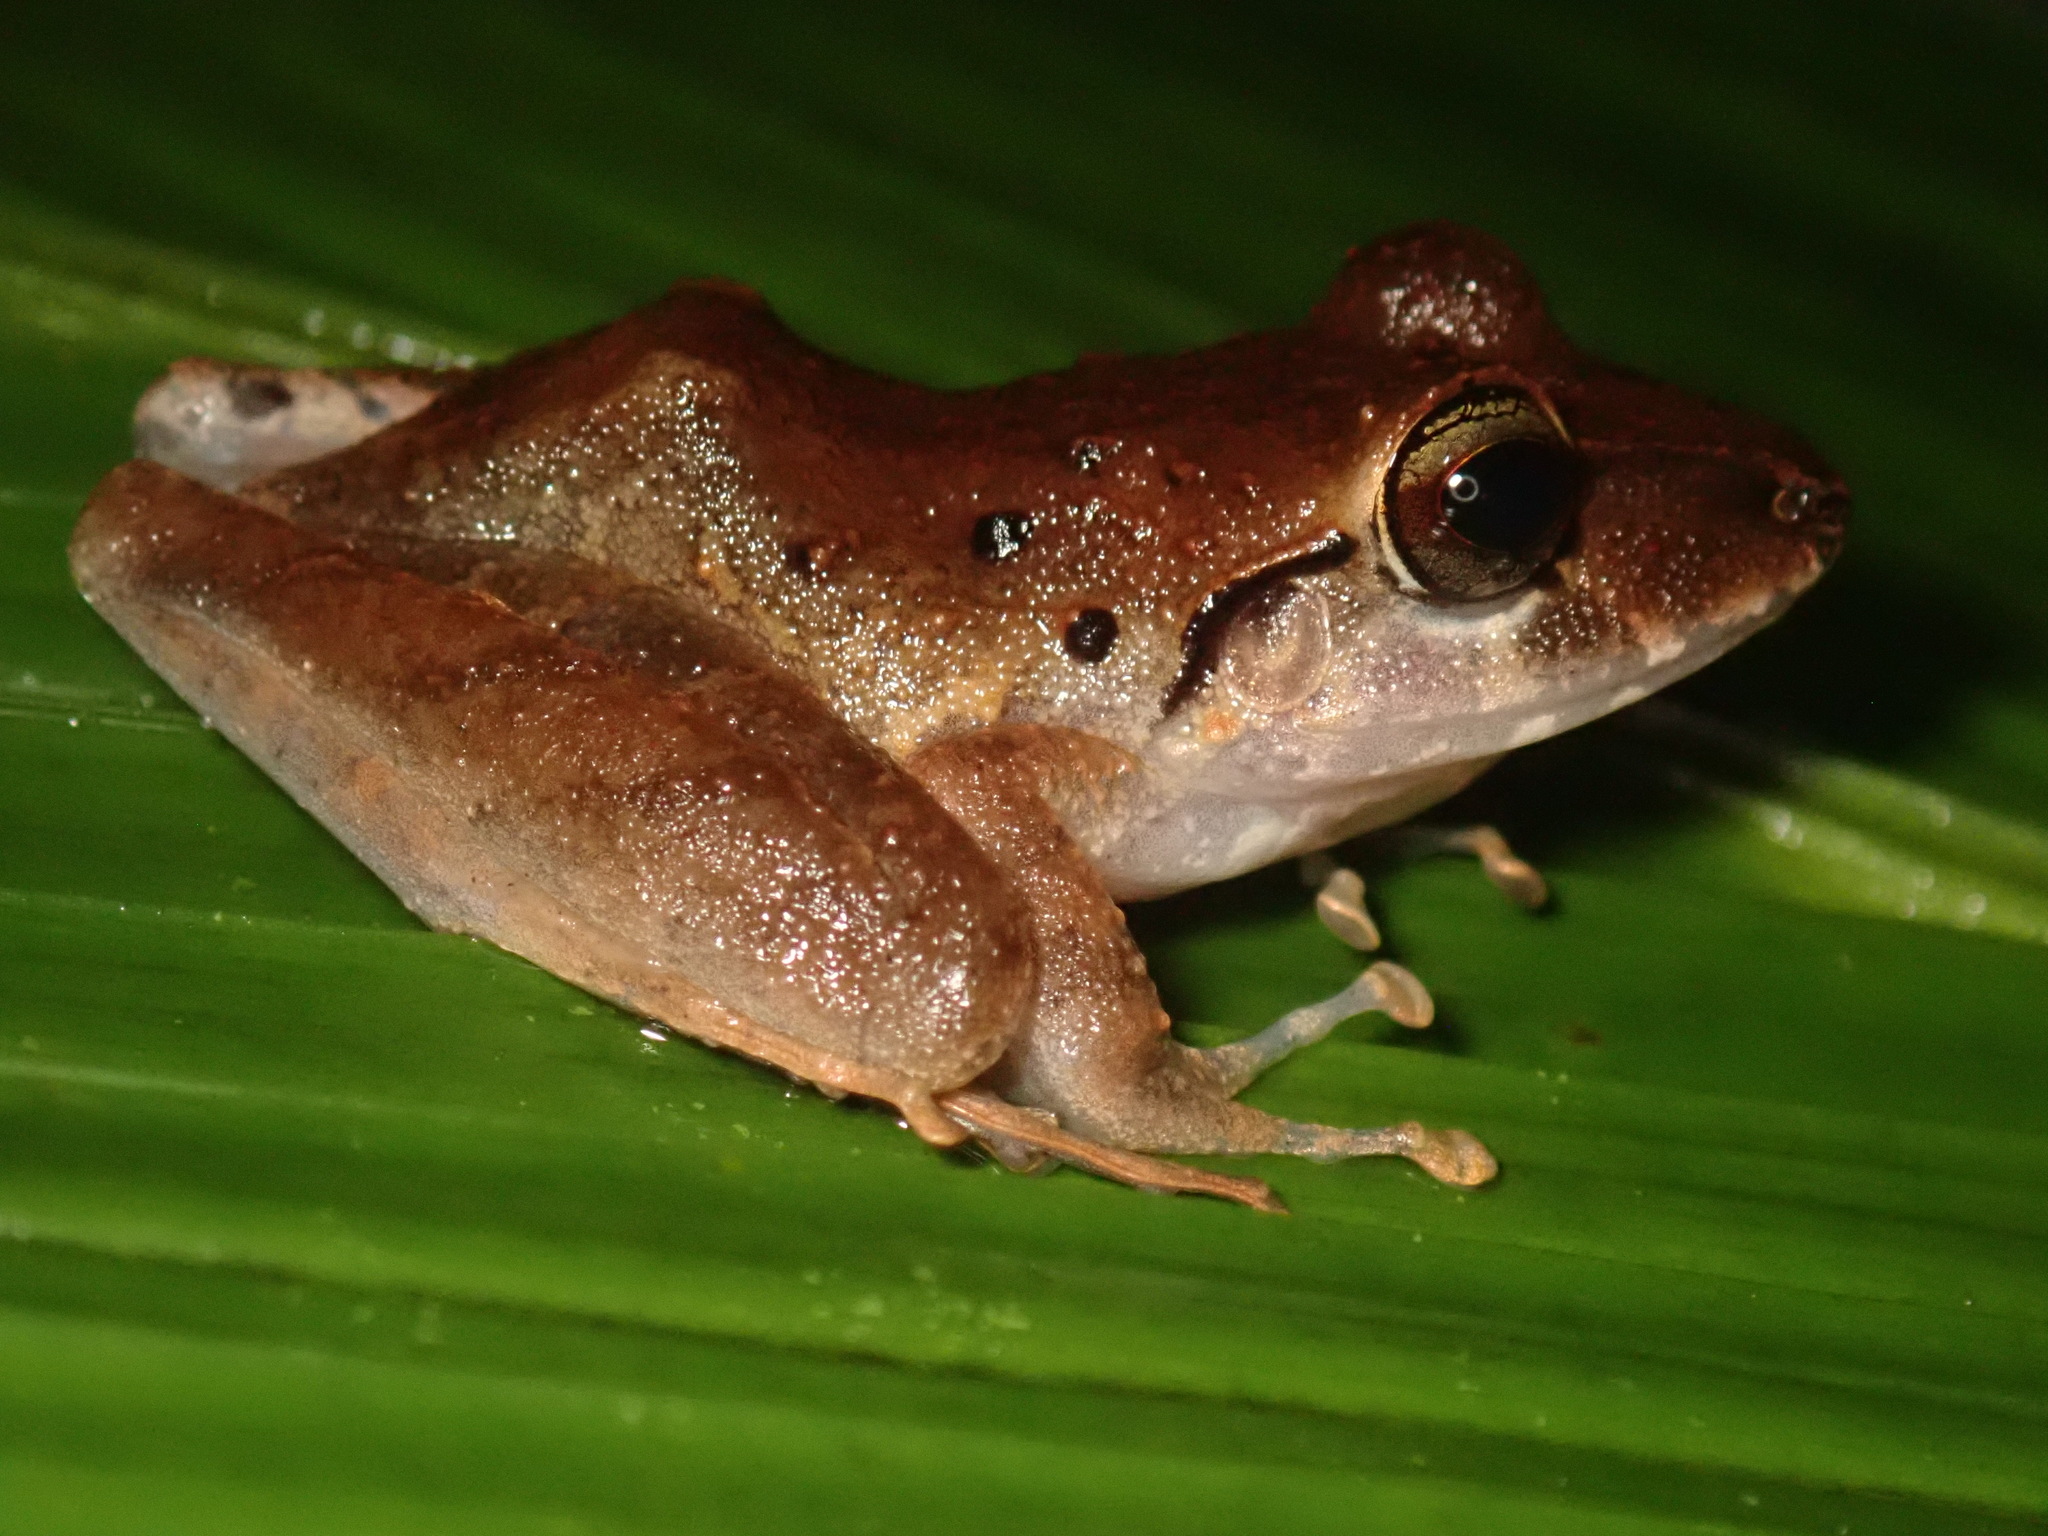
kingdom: Animalia
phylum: Chordata
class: Amphibia
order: Anura
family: Craugastoridae
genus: Craugastor
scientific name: Craugastor crassidigitus
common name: Isla bonita robber frog
